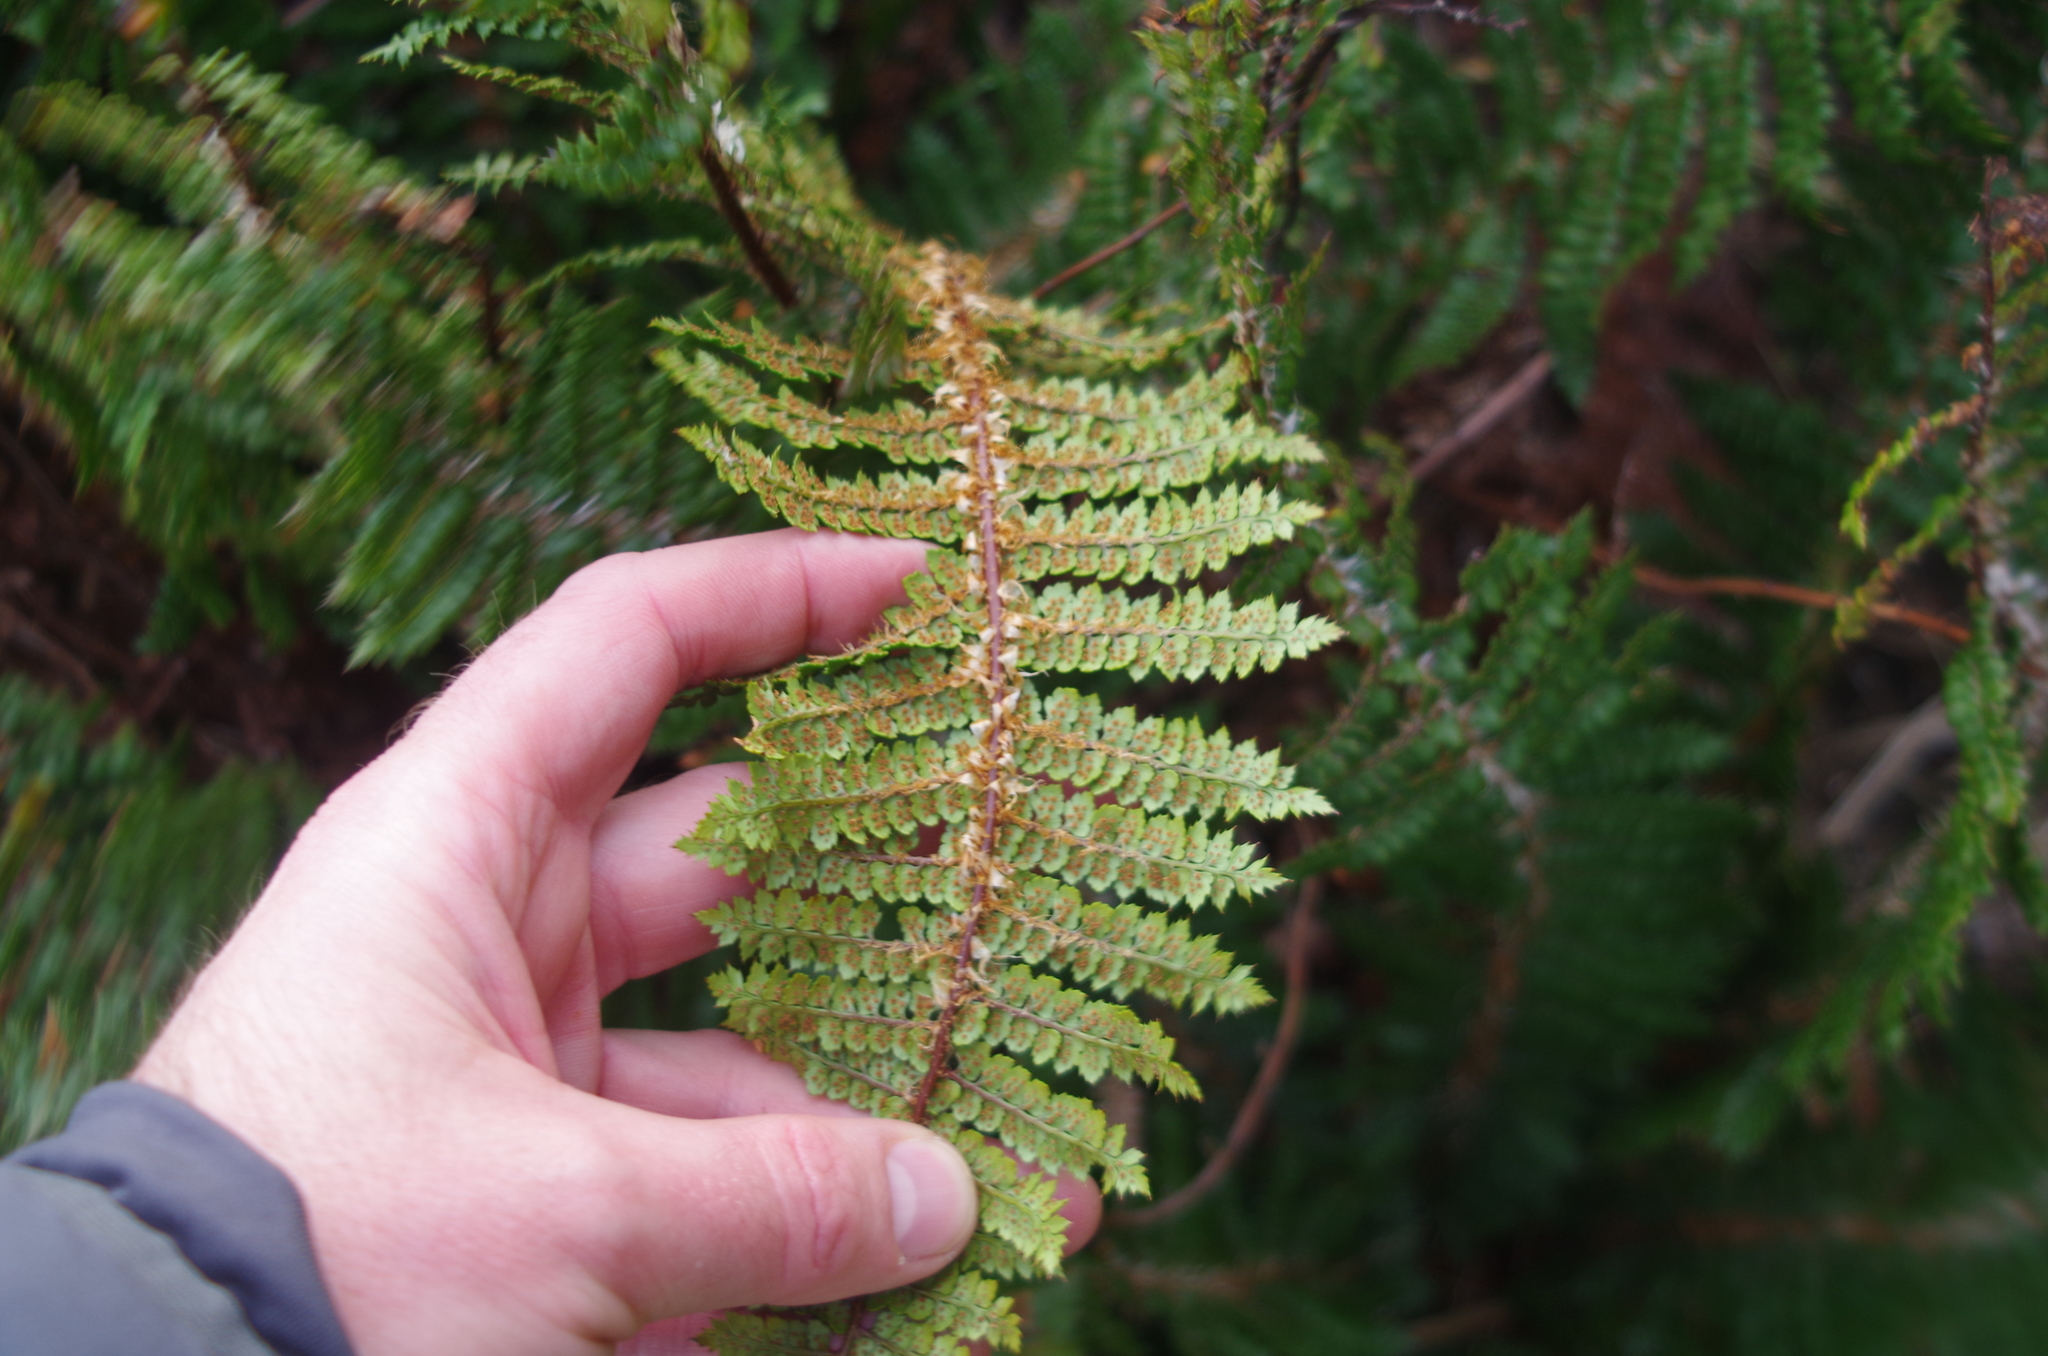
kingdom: Plantae
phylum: Tracheophyta
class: Polypodiopsida
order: Polypodiales
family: Dryopteridaceae
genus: Polystichum
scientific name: Polystichum vestitum
